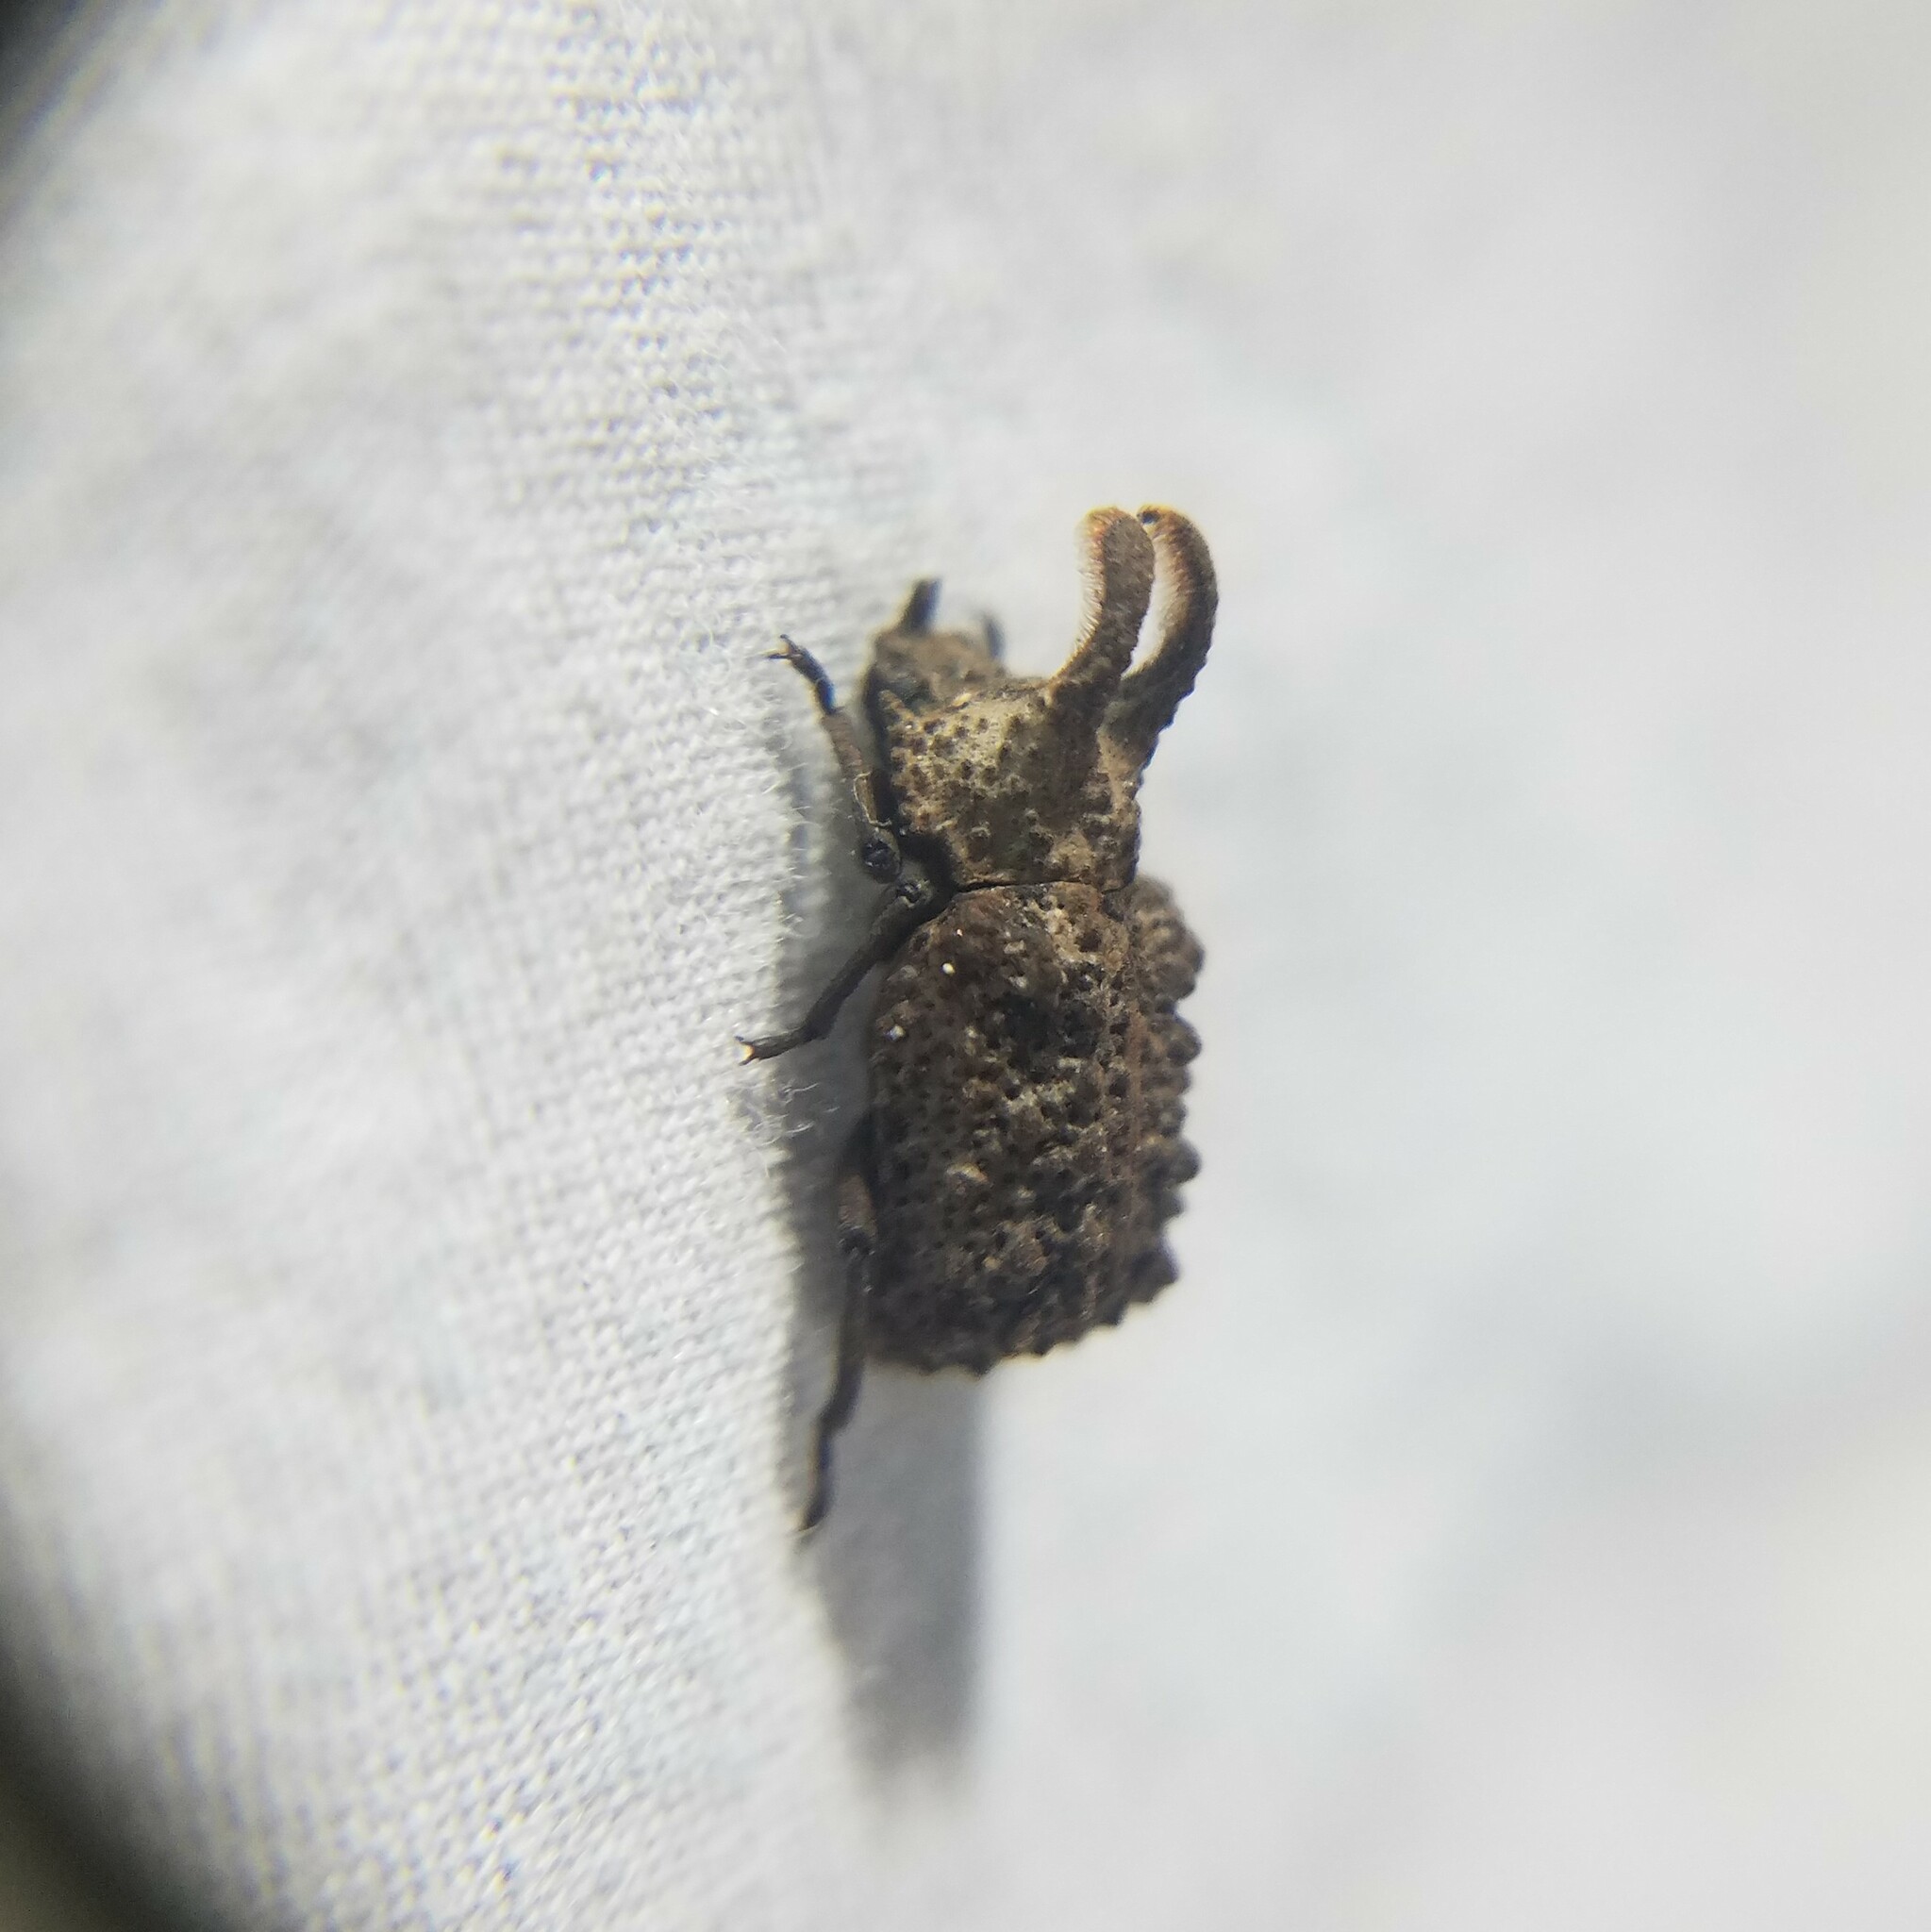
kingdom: Animalia
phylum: Arthropoda
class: Insecta
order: Coleoptera
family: Tenebrionidae
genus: Gnatocerus
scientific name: Gnatocerus cornutus
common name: Broad-horned flour beetle
